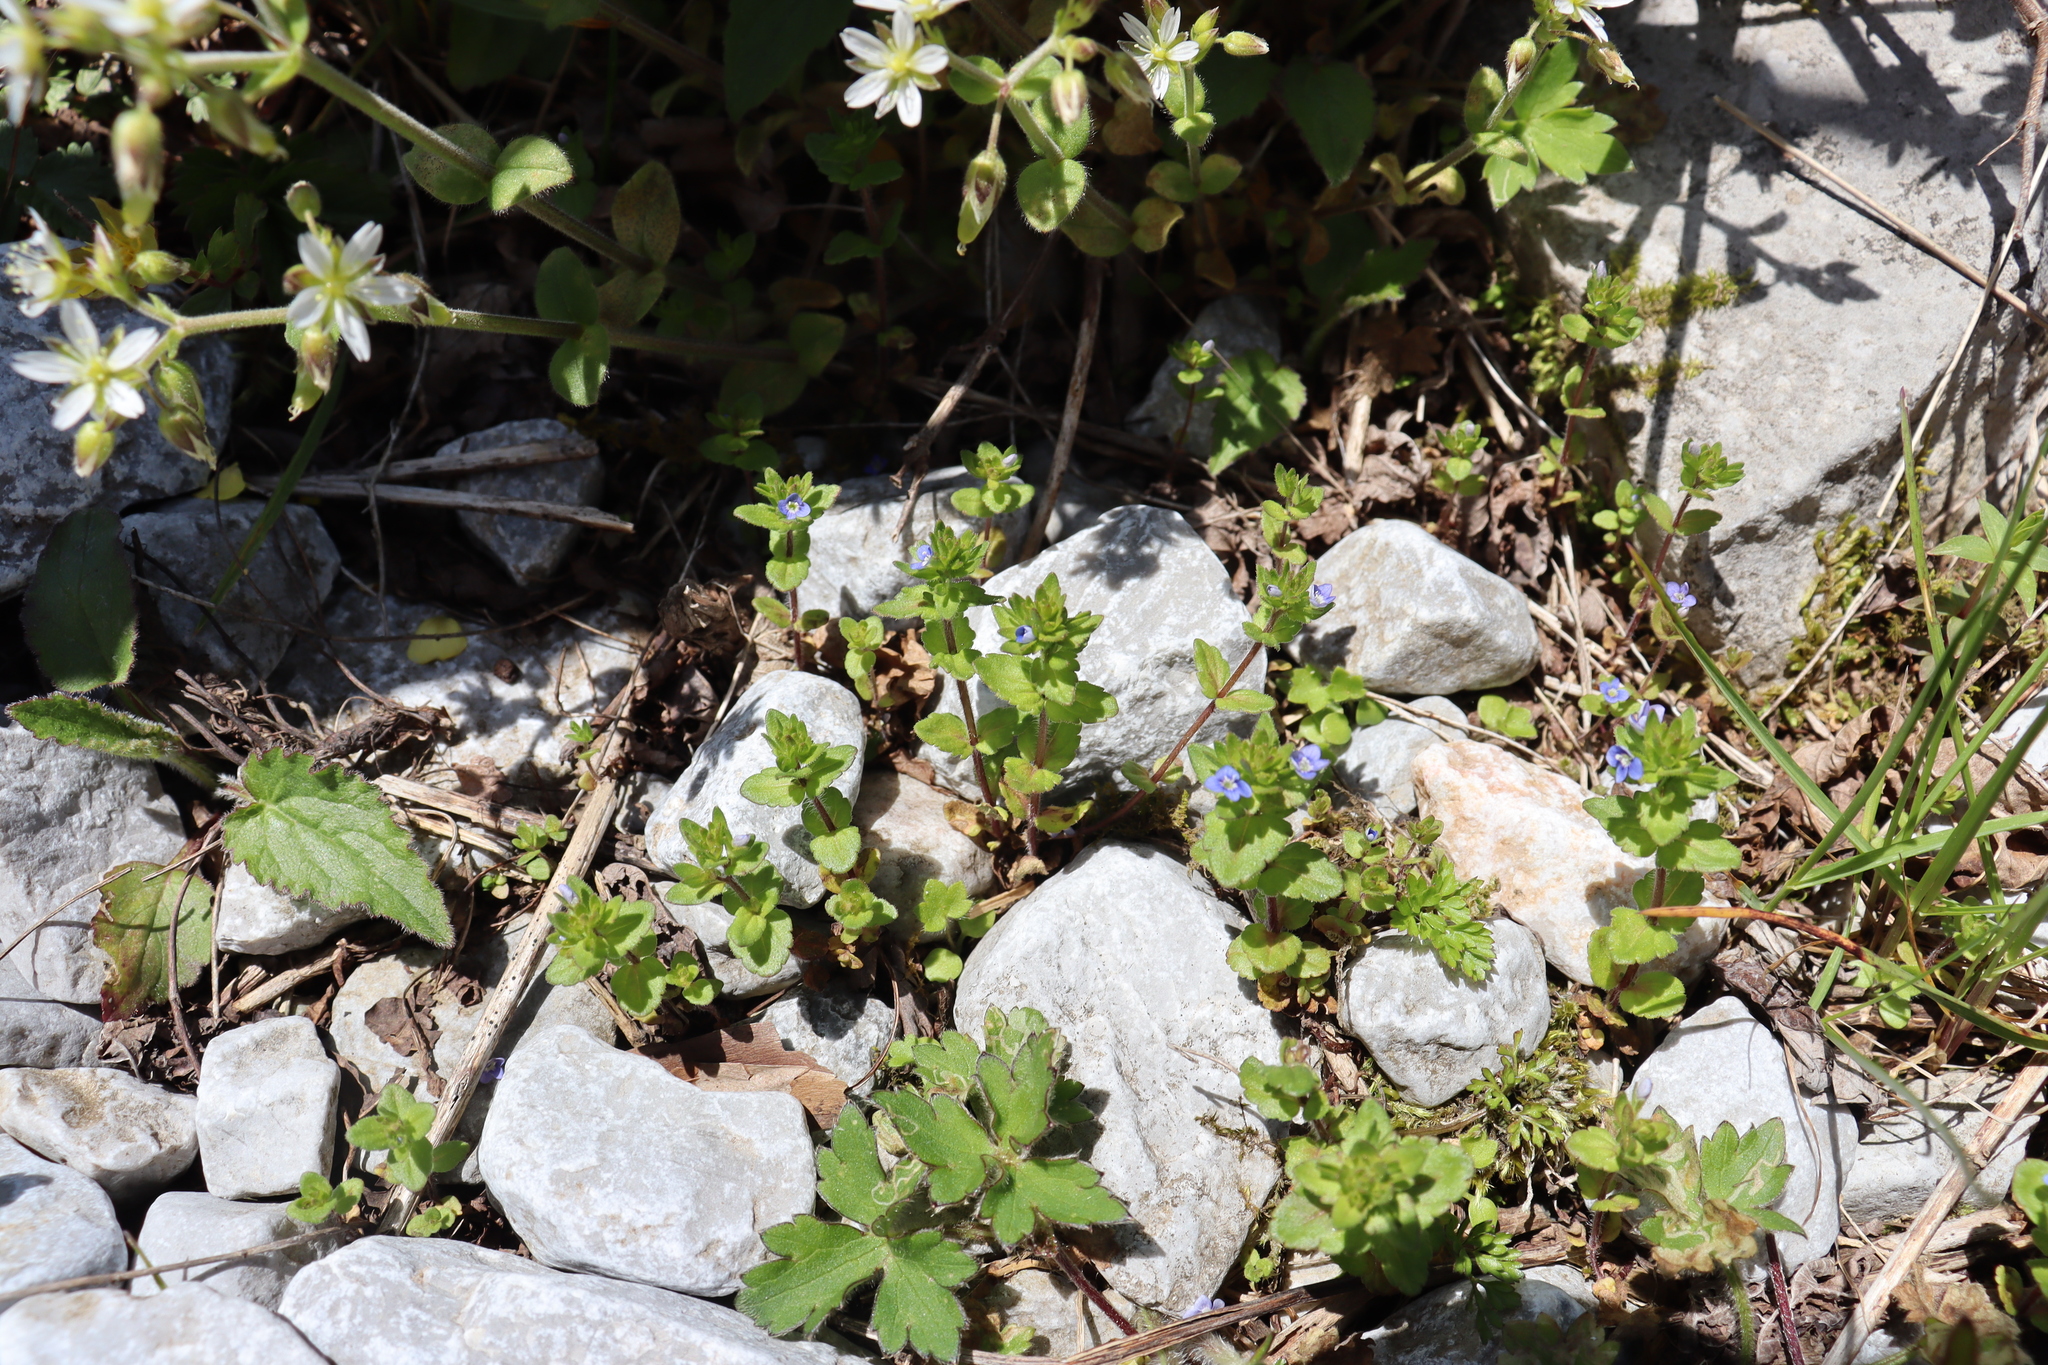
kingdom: Plantae
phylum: Tracheophyta
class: Magnoliopsida
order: Lamiales
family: Plantaginaceae
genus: Veronica
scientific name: Veronica arvensis
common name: Corn speedwell
